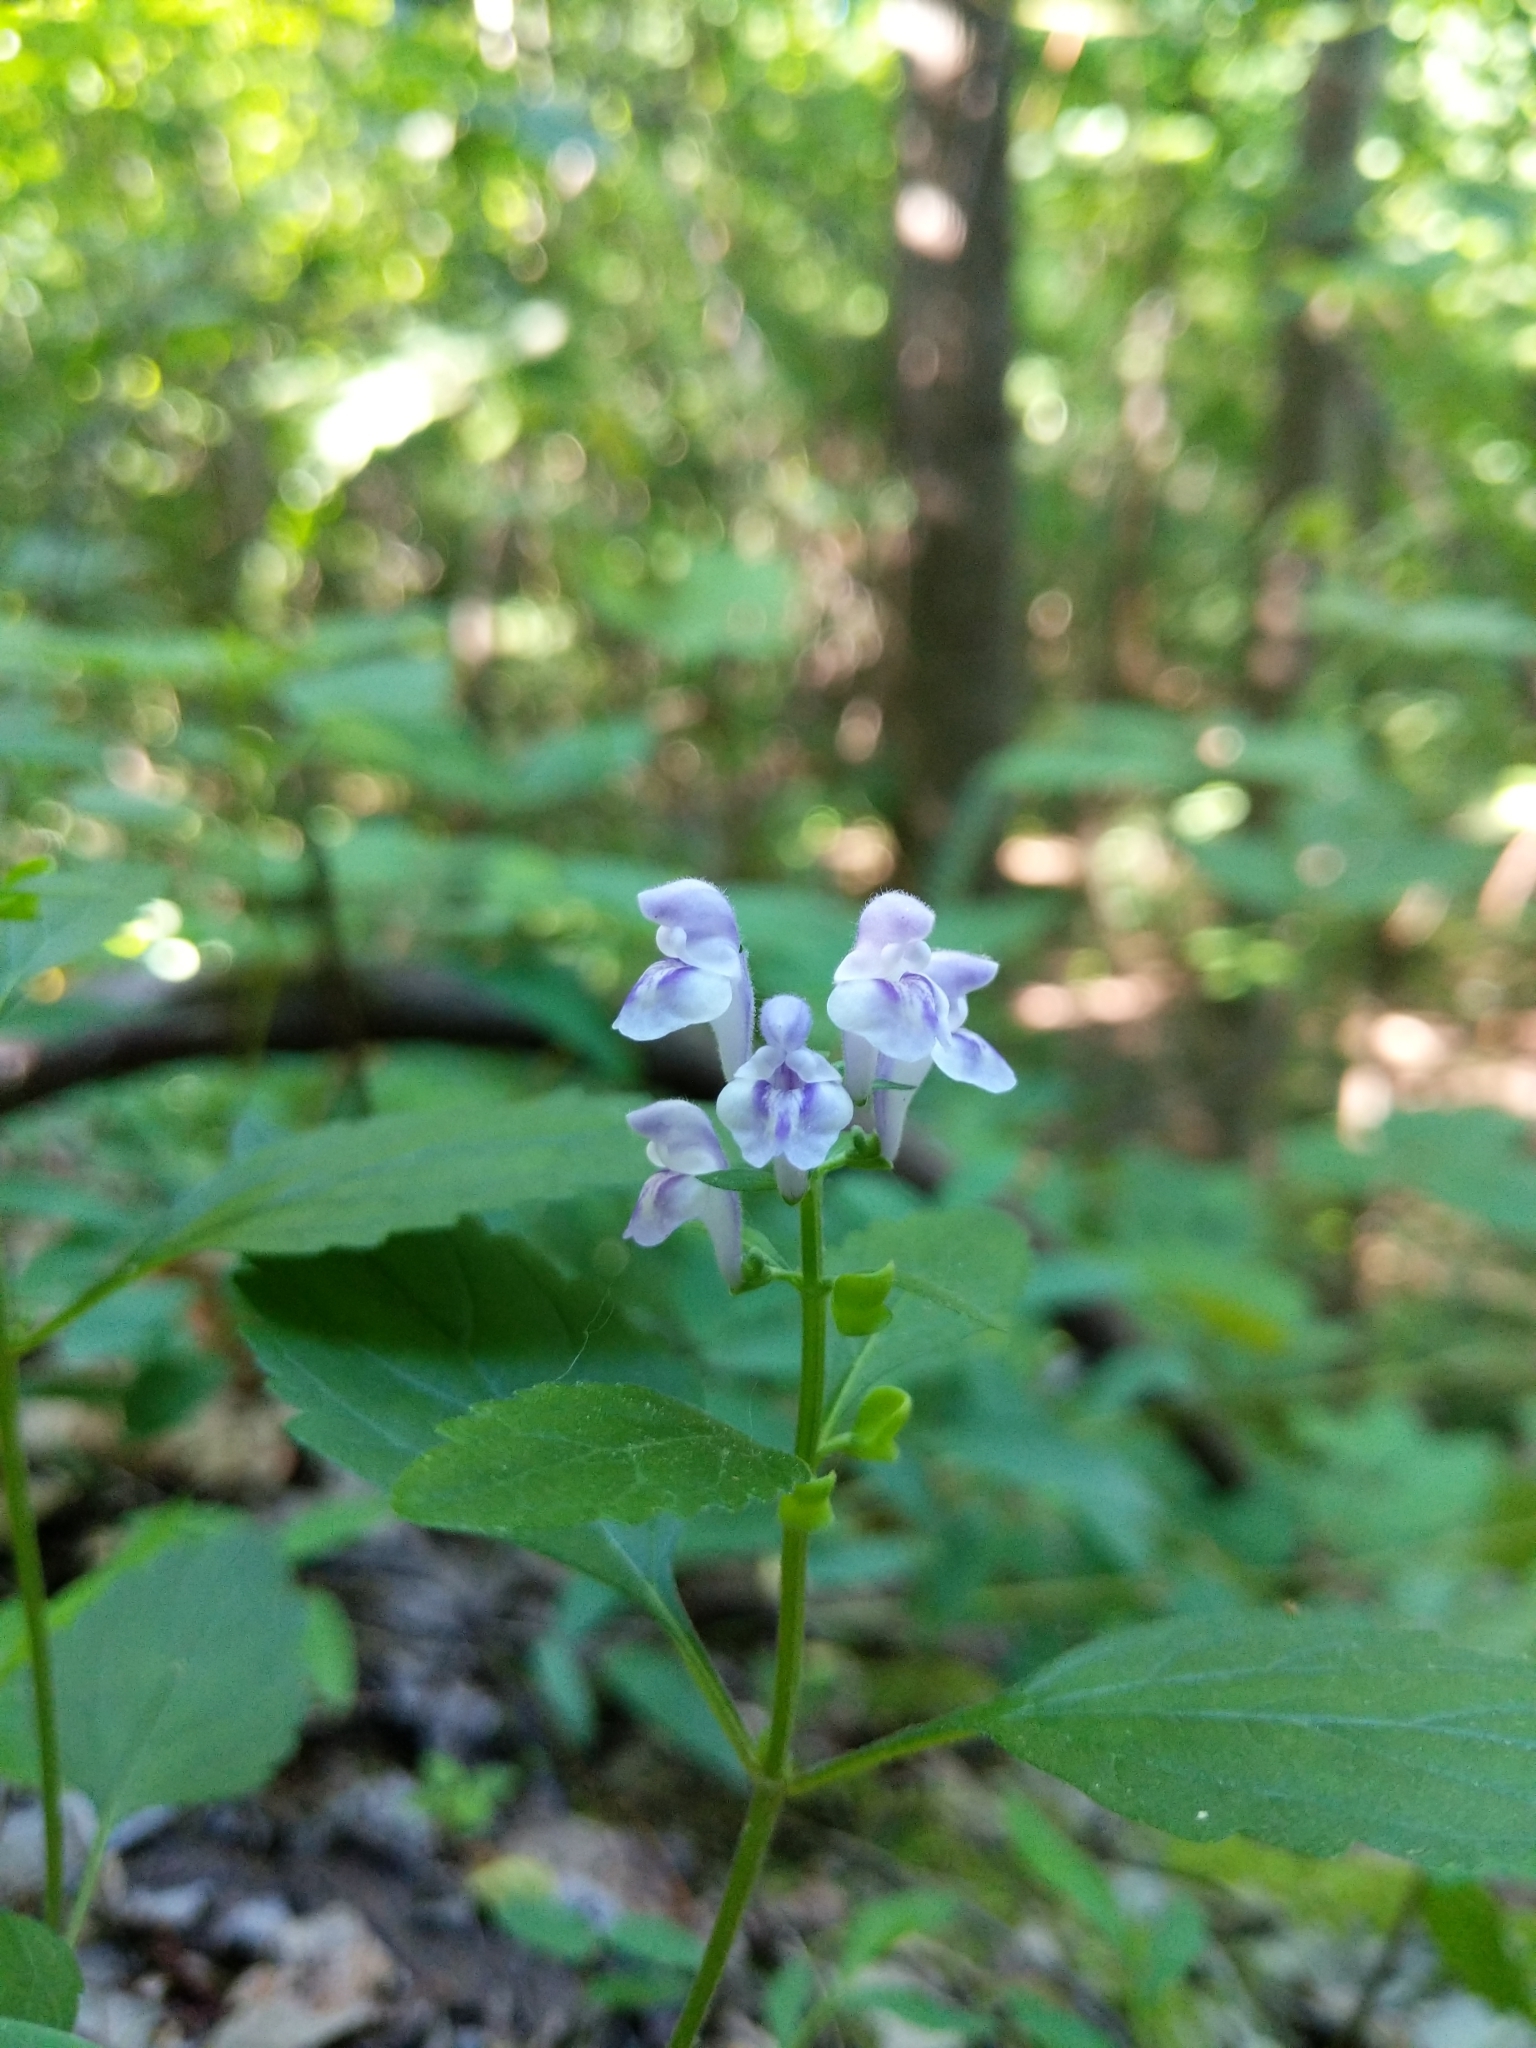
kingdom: Plantae
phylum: Tracheophyta
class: Magnoliopsida
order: Lamiales
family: Lamiaceae
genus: Scutellaria
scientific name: Scutellaria elliptica
